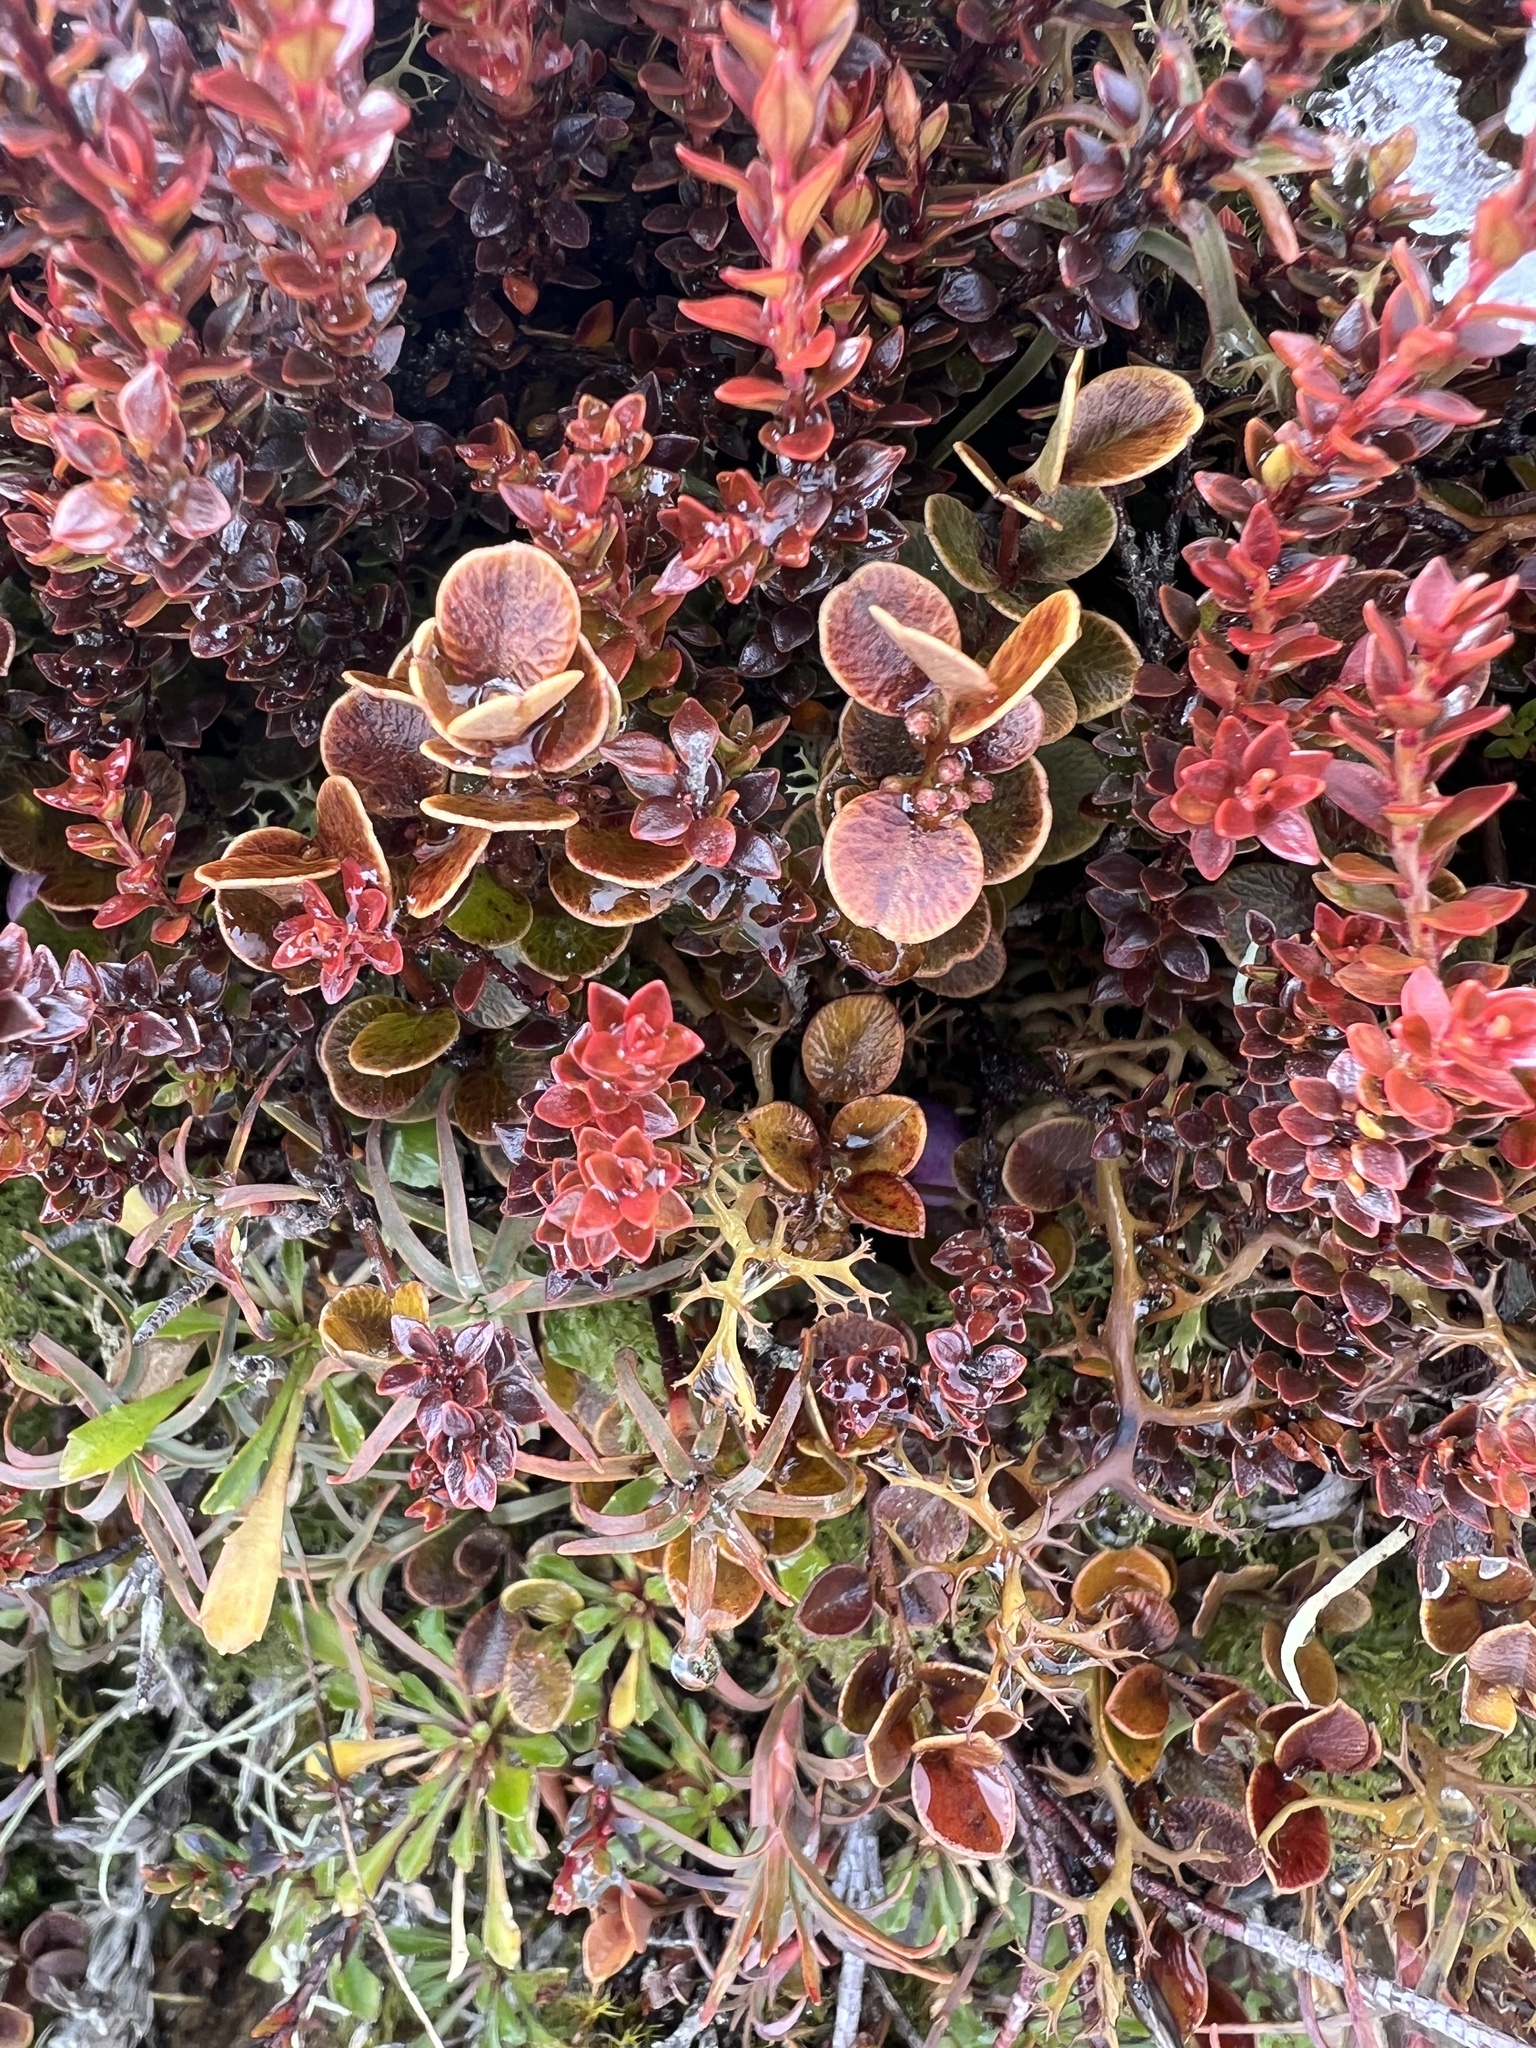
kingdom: Plantae
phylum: Tracheophyta
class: Magnoliopsida
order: Ericales
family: Primulaceae
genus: Myrsine
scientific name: Myrsine nummularia
